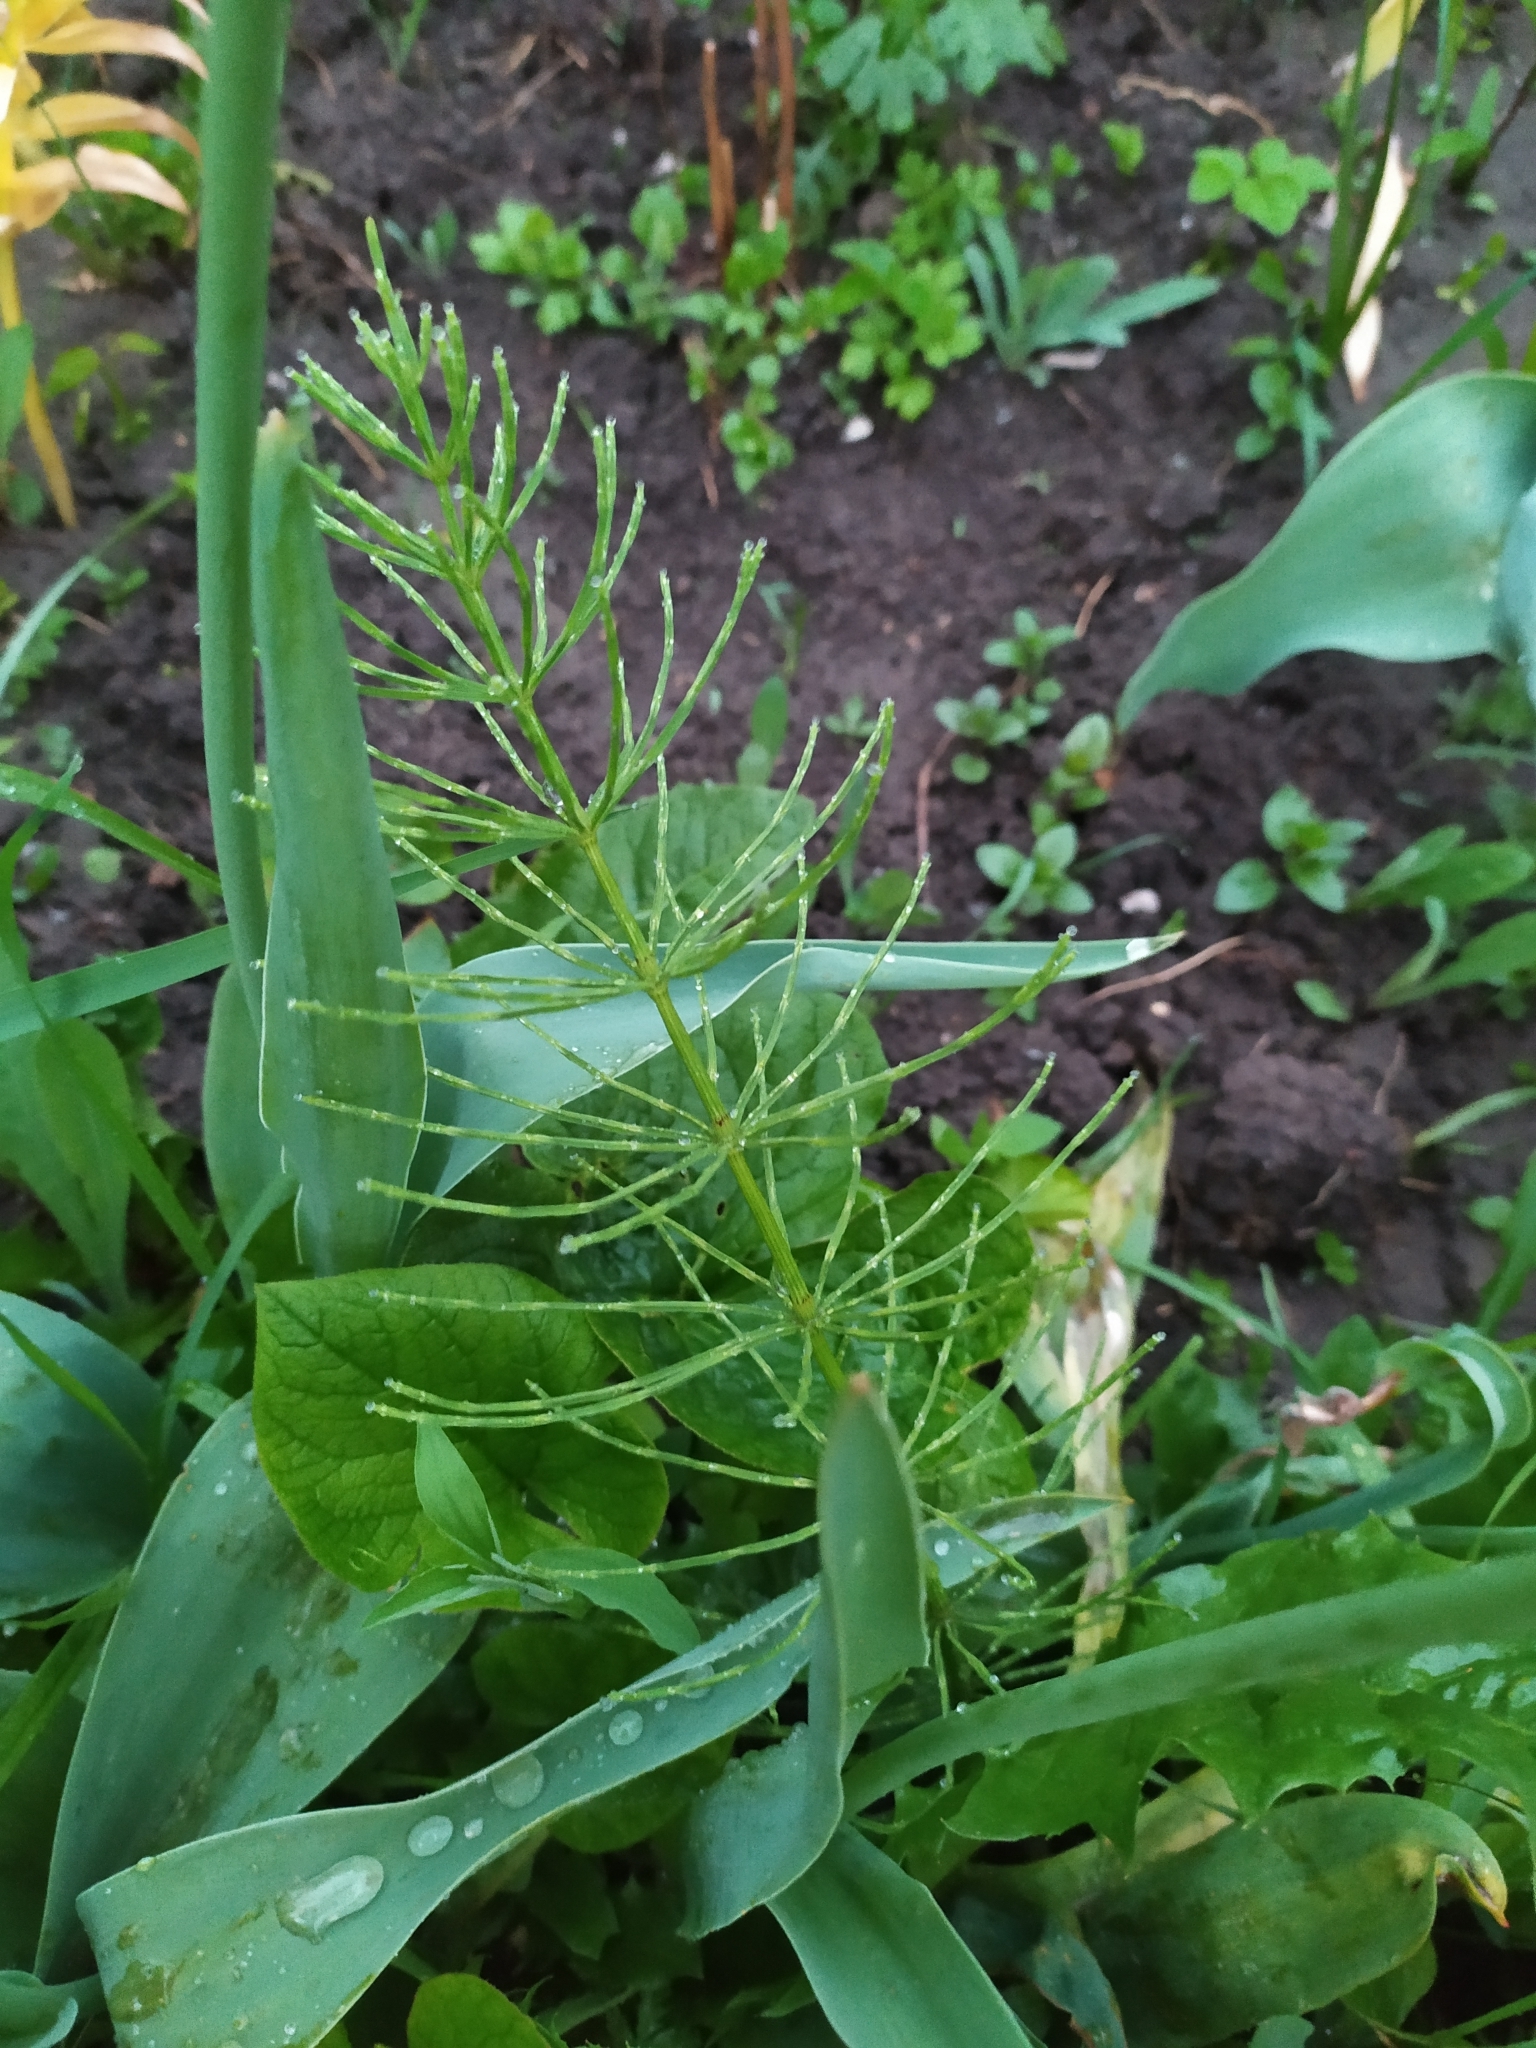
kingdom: Plantae
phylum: Tracheophyta
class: Polypodiopsida
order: Equisetales
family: Equisetaceae
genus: Equisetum
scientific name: Equisetum arvense
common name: Field horsetail
